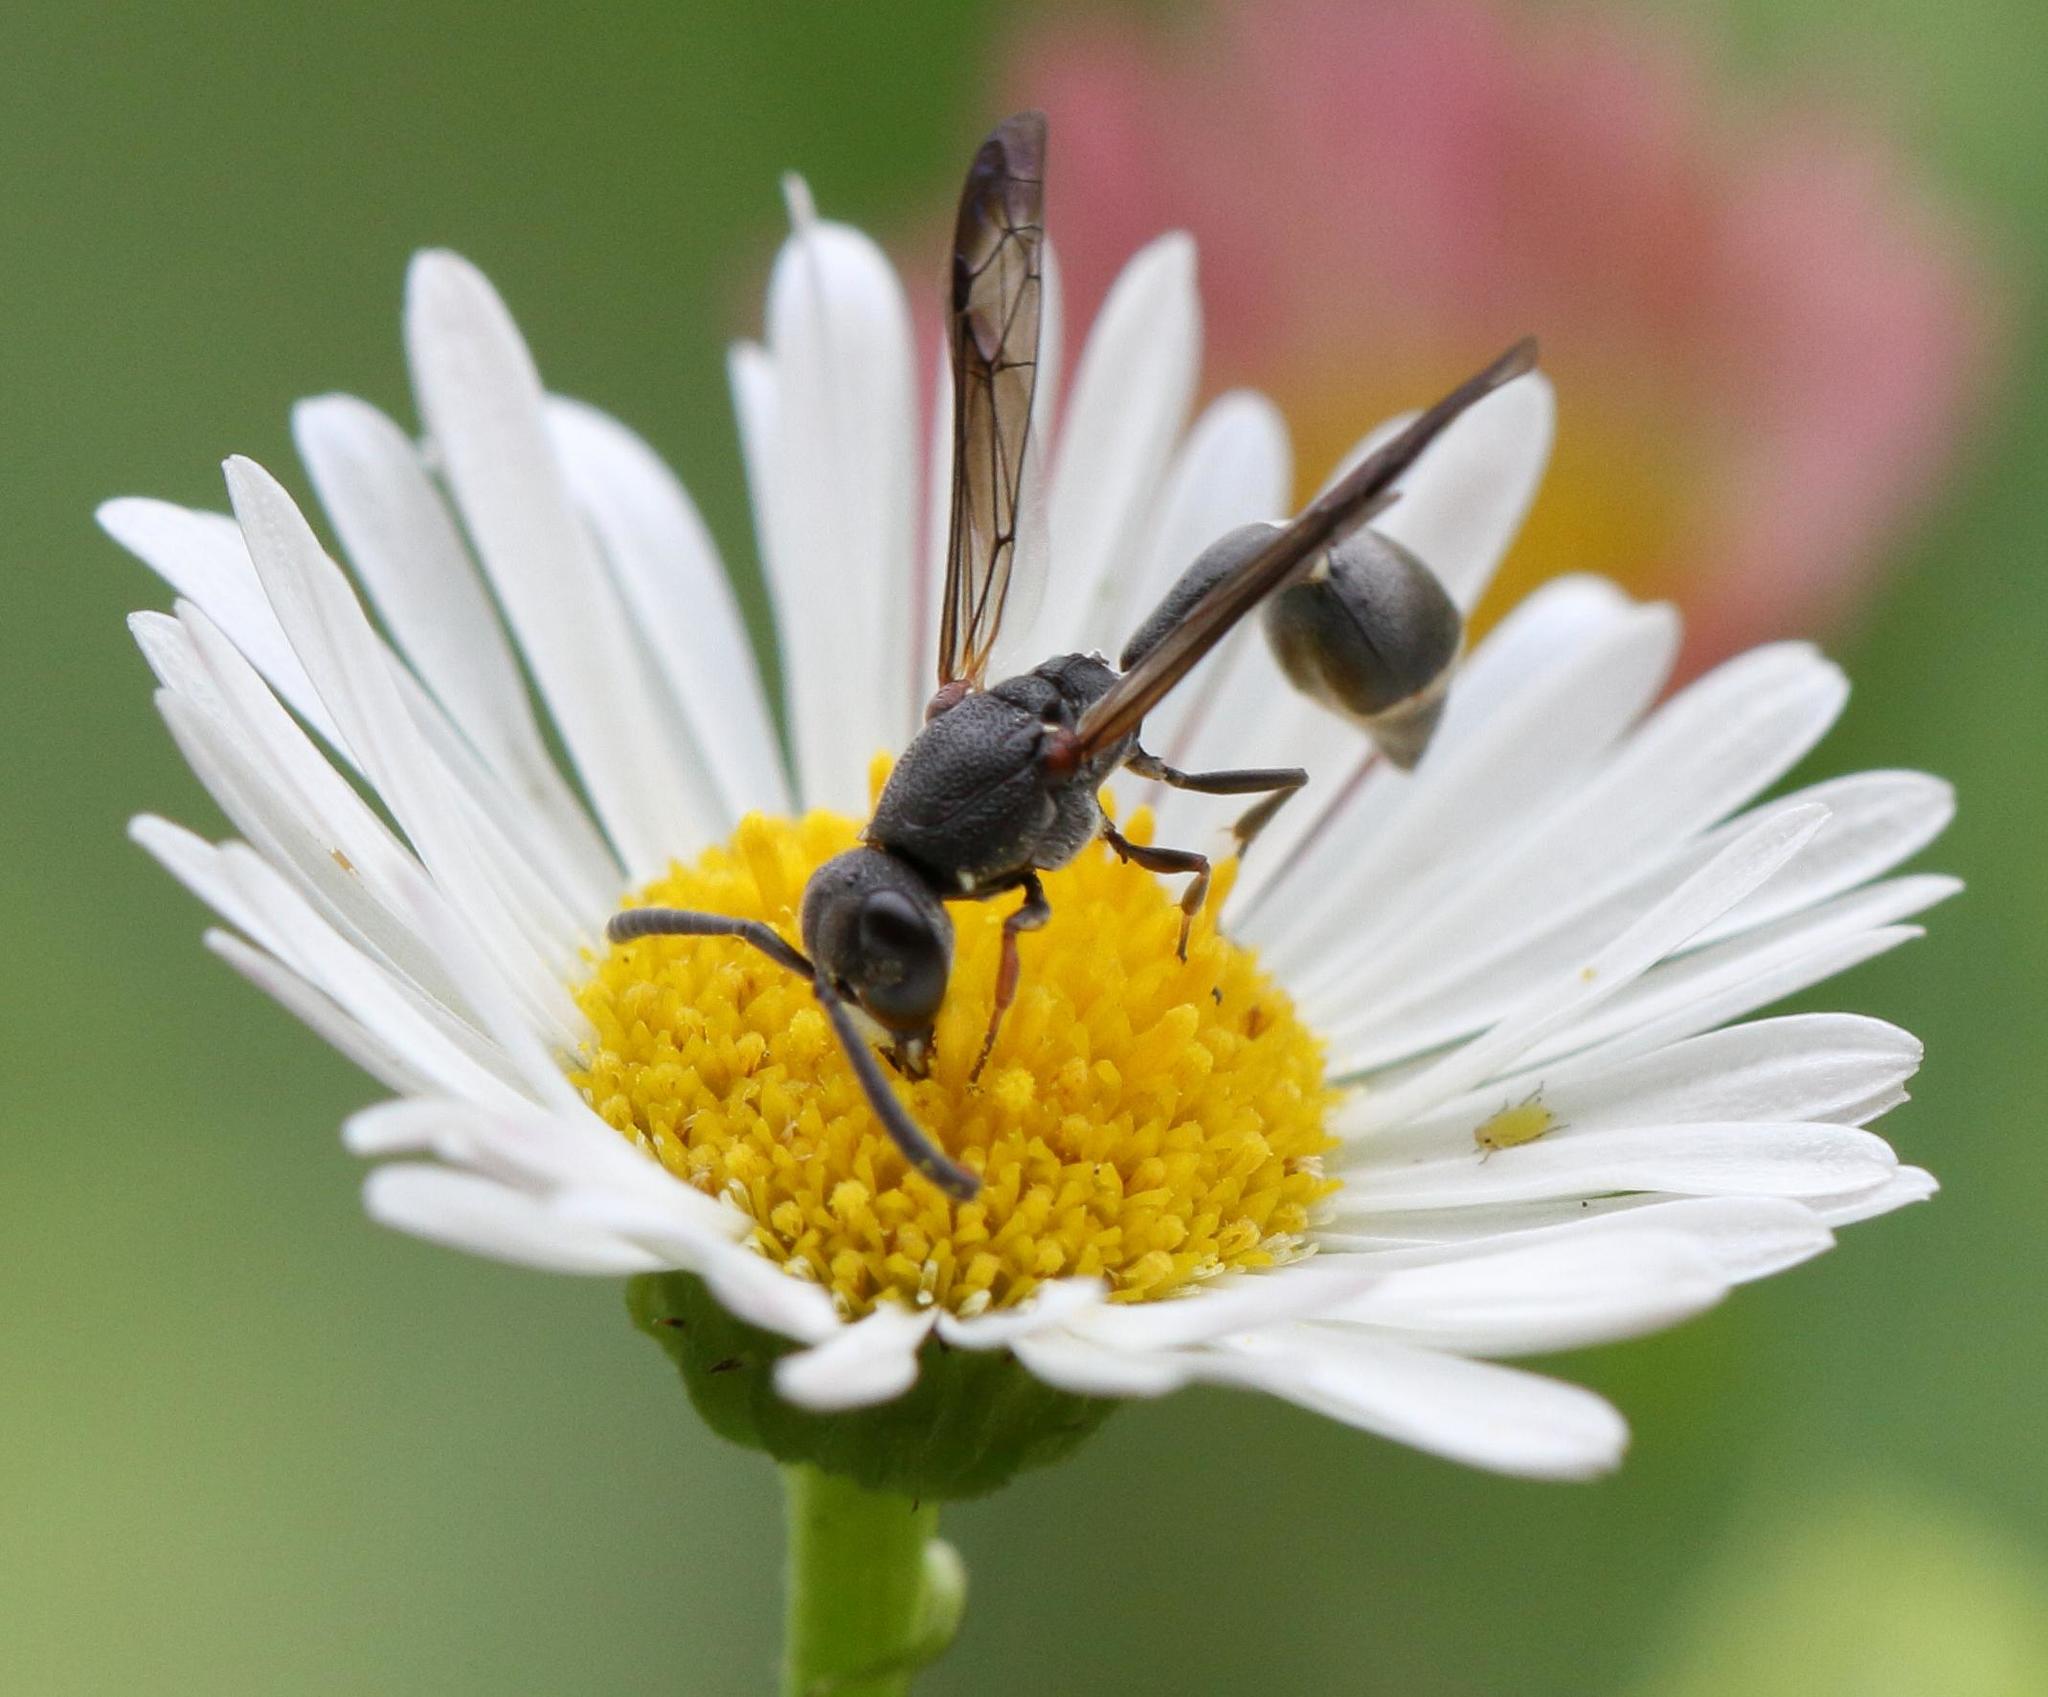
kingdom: Animalia
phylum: Arthropoda
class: Insecta
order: Hymenoptera
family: Eumenidae
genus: Micreumenes
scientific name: Micreumenes
